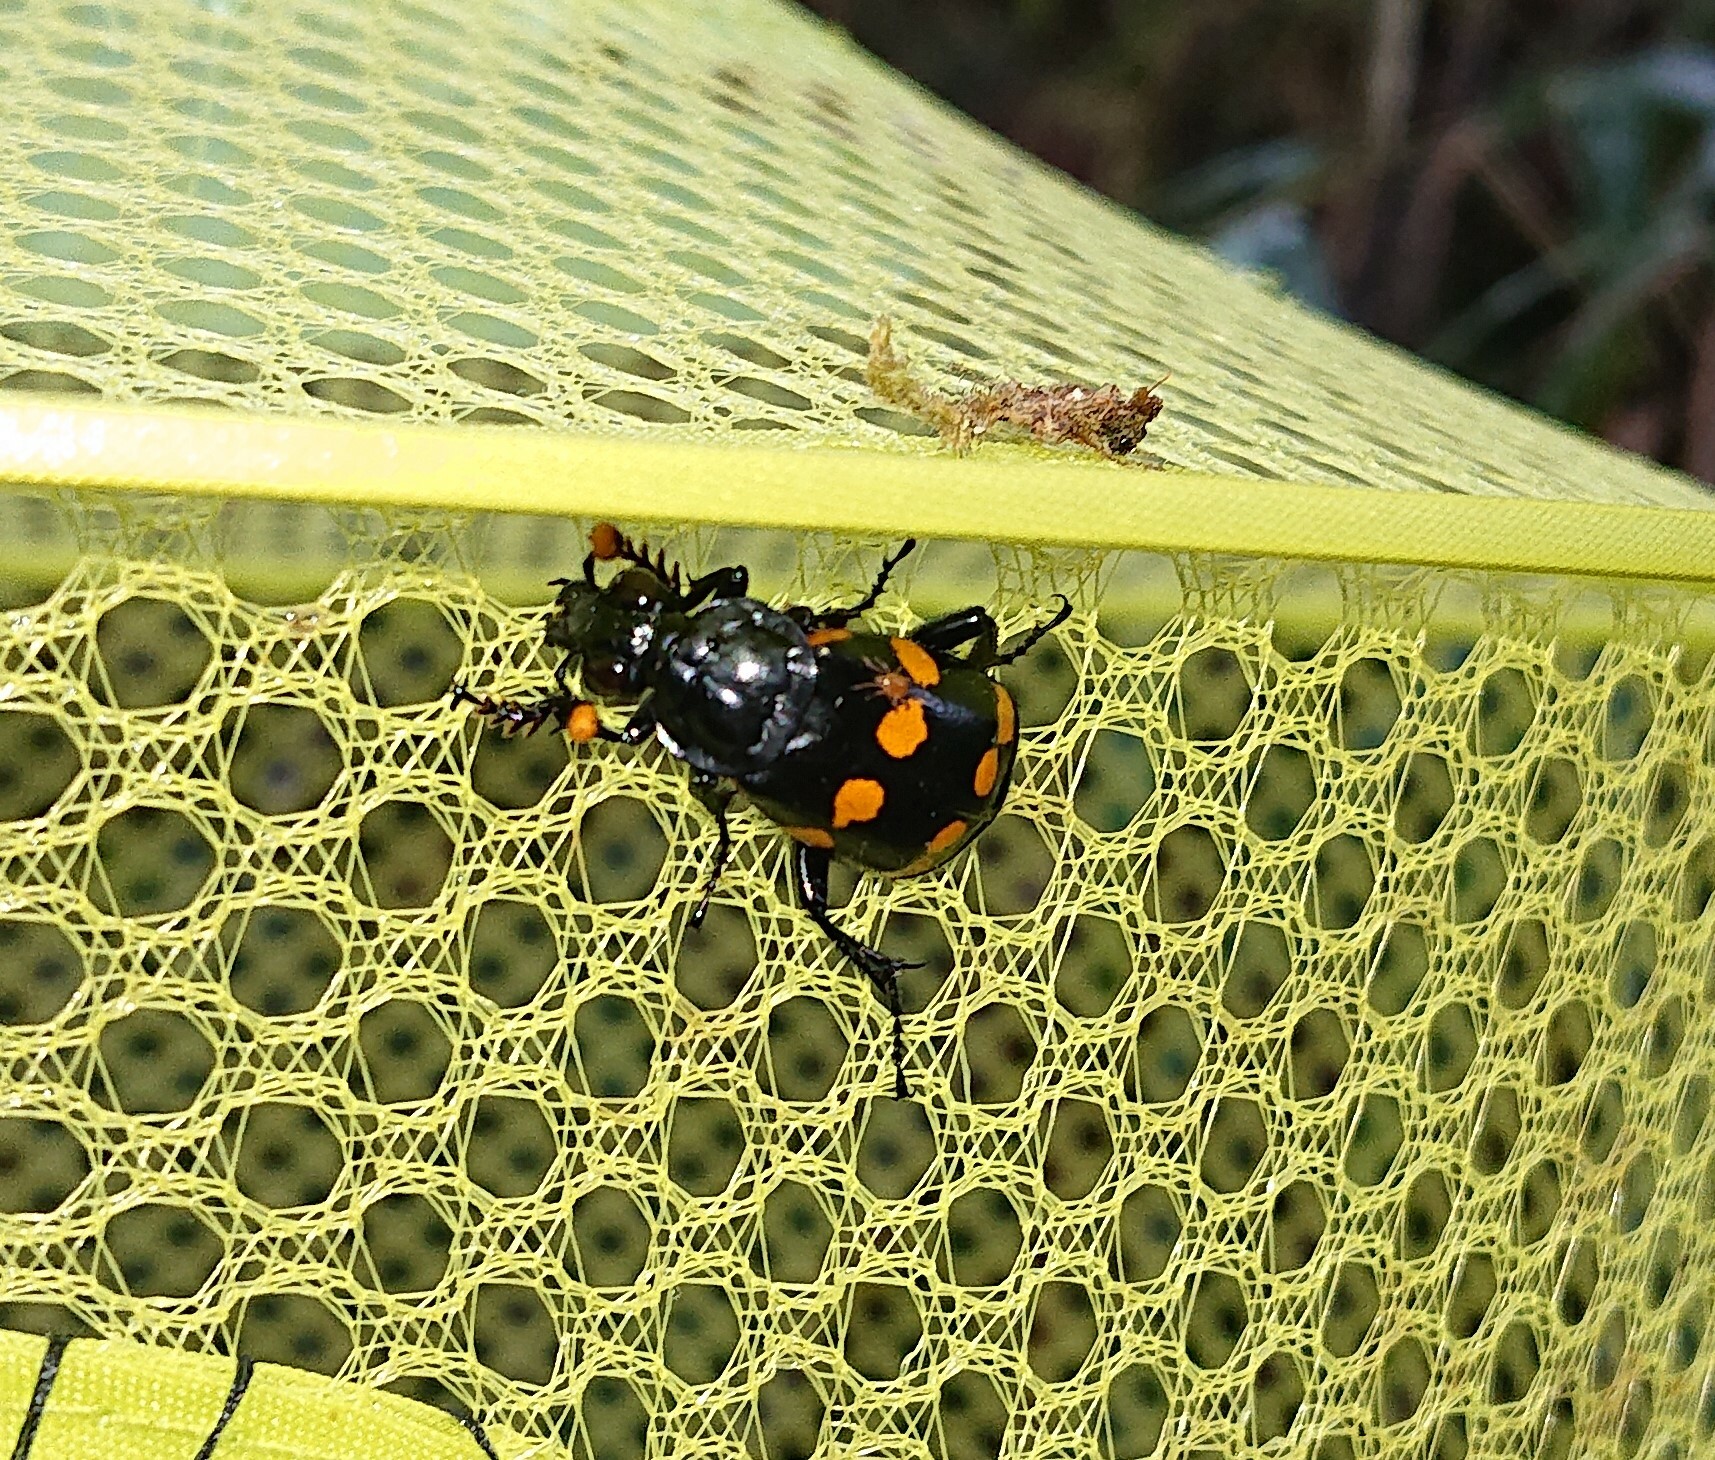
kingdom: Animalia
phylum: Arthropoda
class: Insecta
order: Coleoptera
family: Staphylinidae
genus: Nicrophorus
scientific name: Nicrophorus didymus
